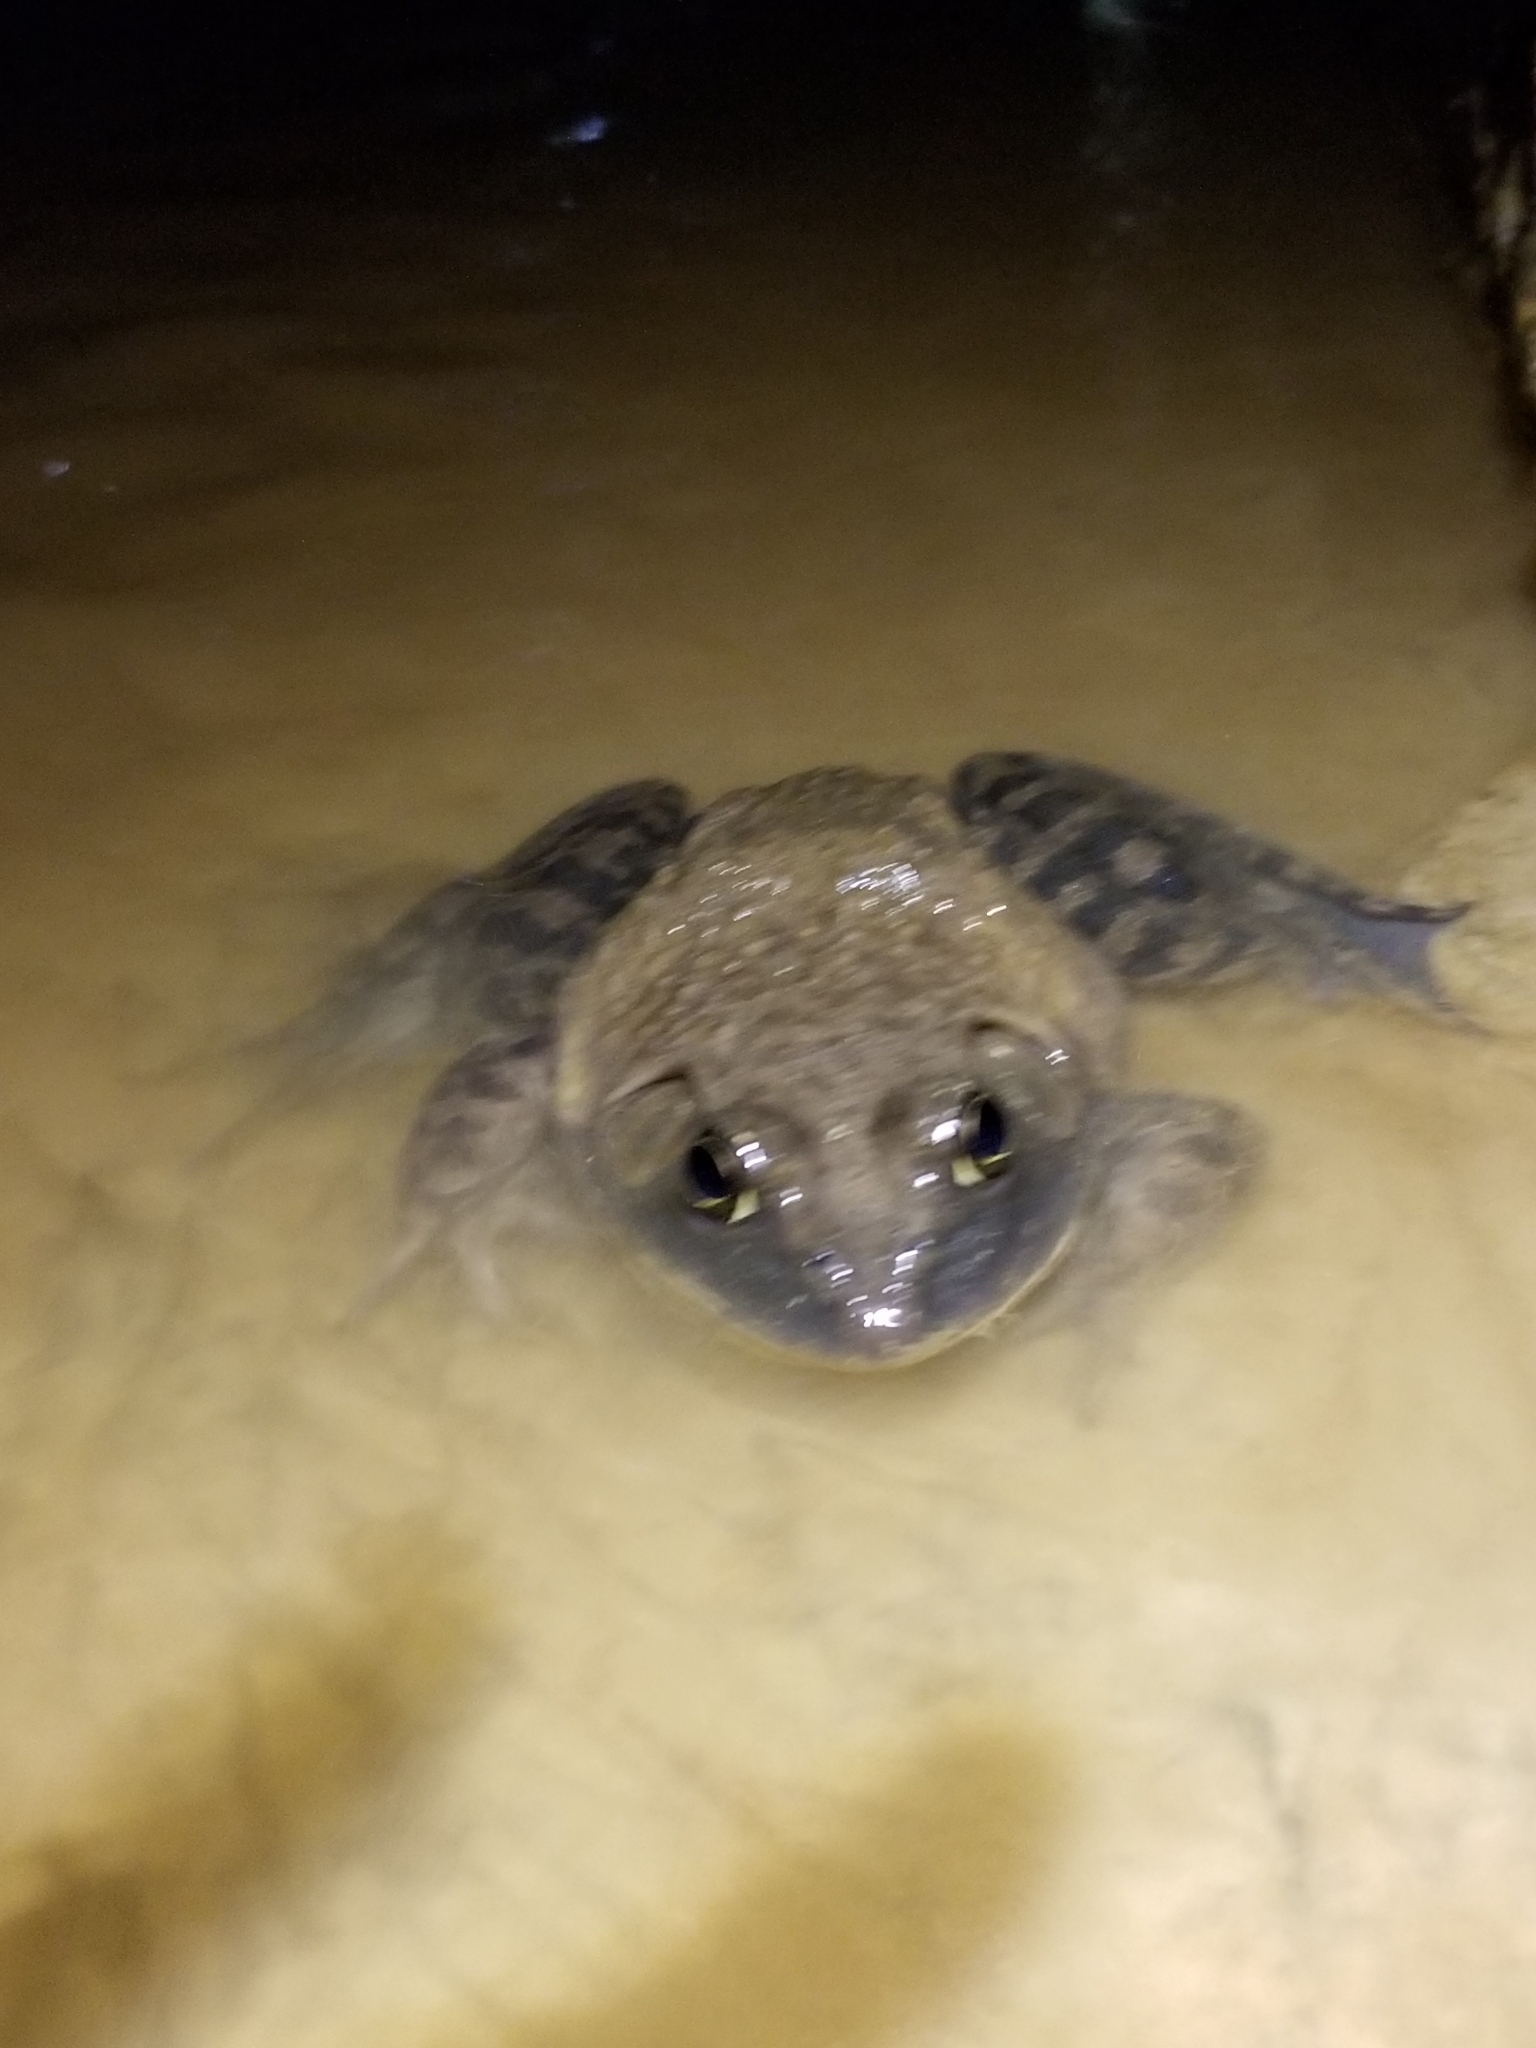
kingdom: Animalia
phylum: Chordata
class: Amphibia
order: Anura
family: Ranidae
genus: Lithobates
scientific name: Lithobates catesbeianus
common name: American bullfrog
